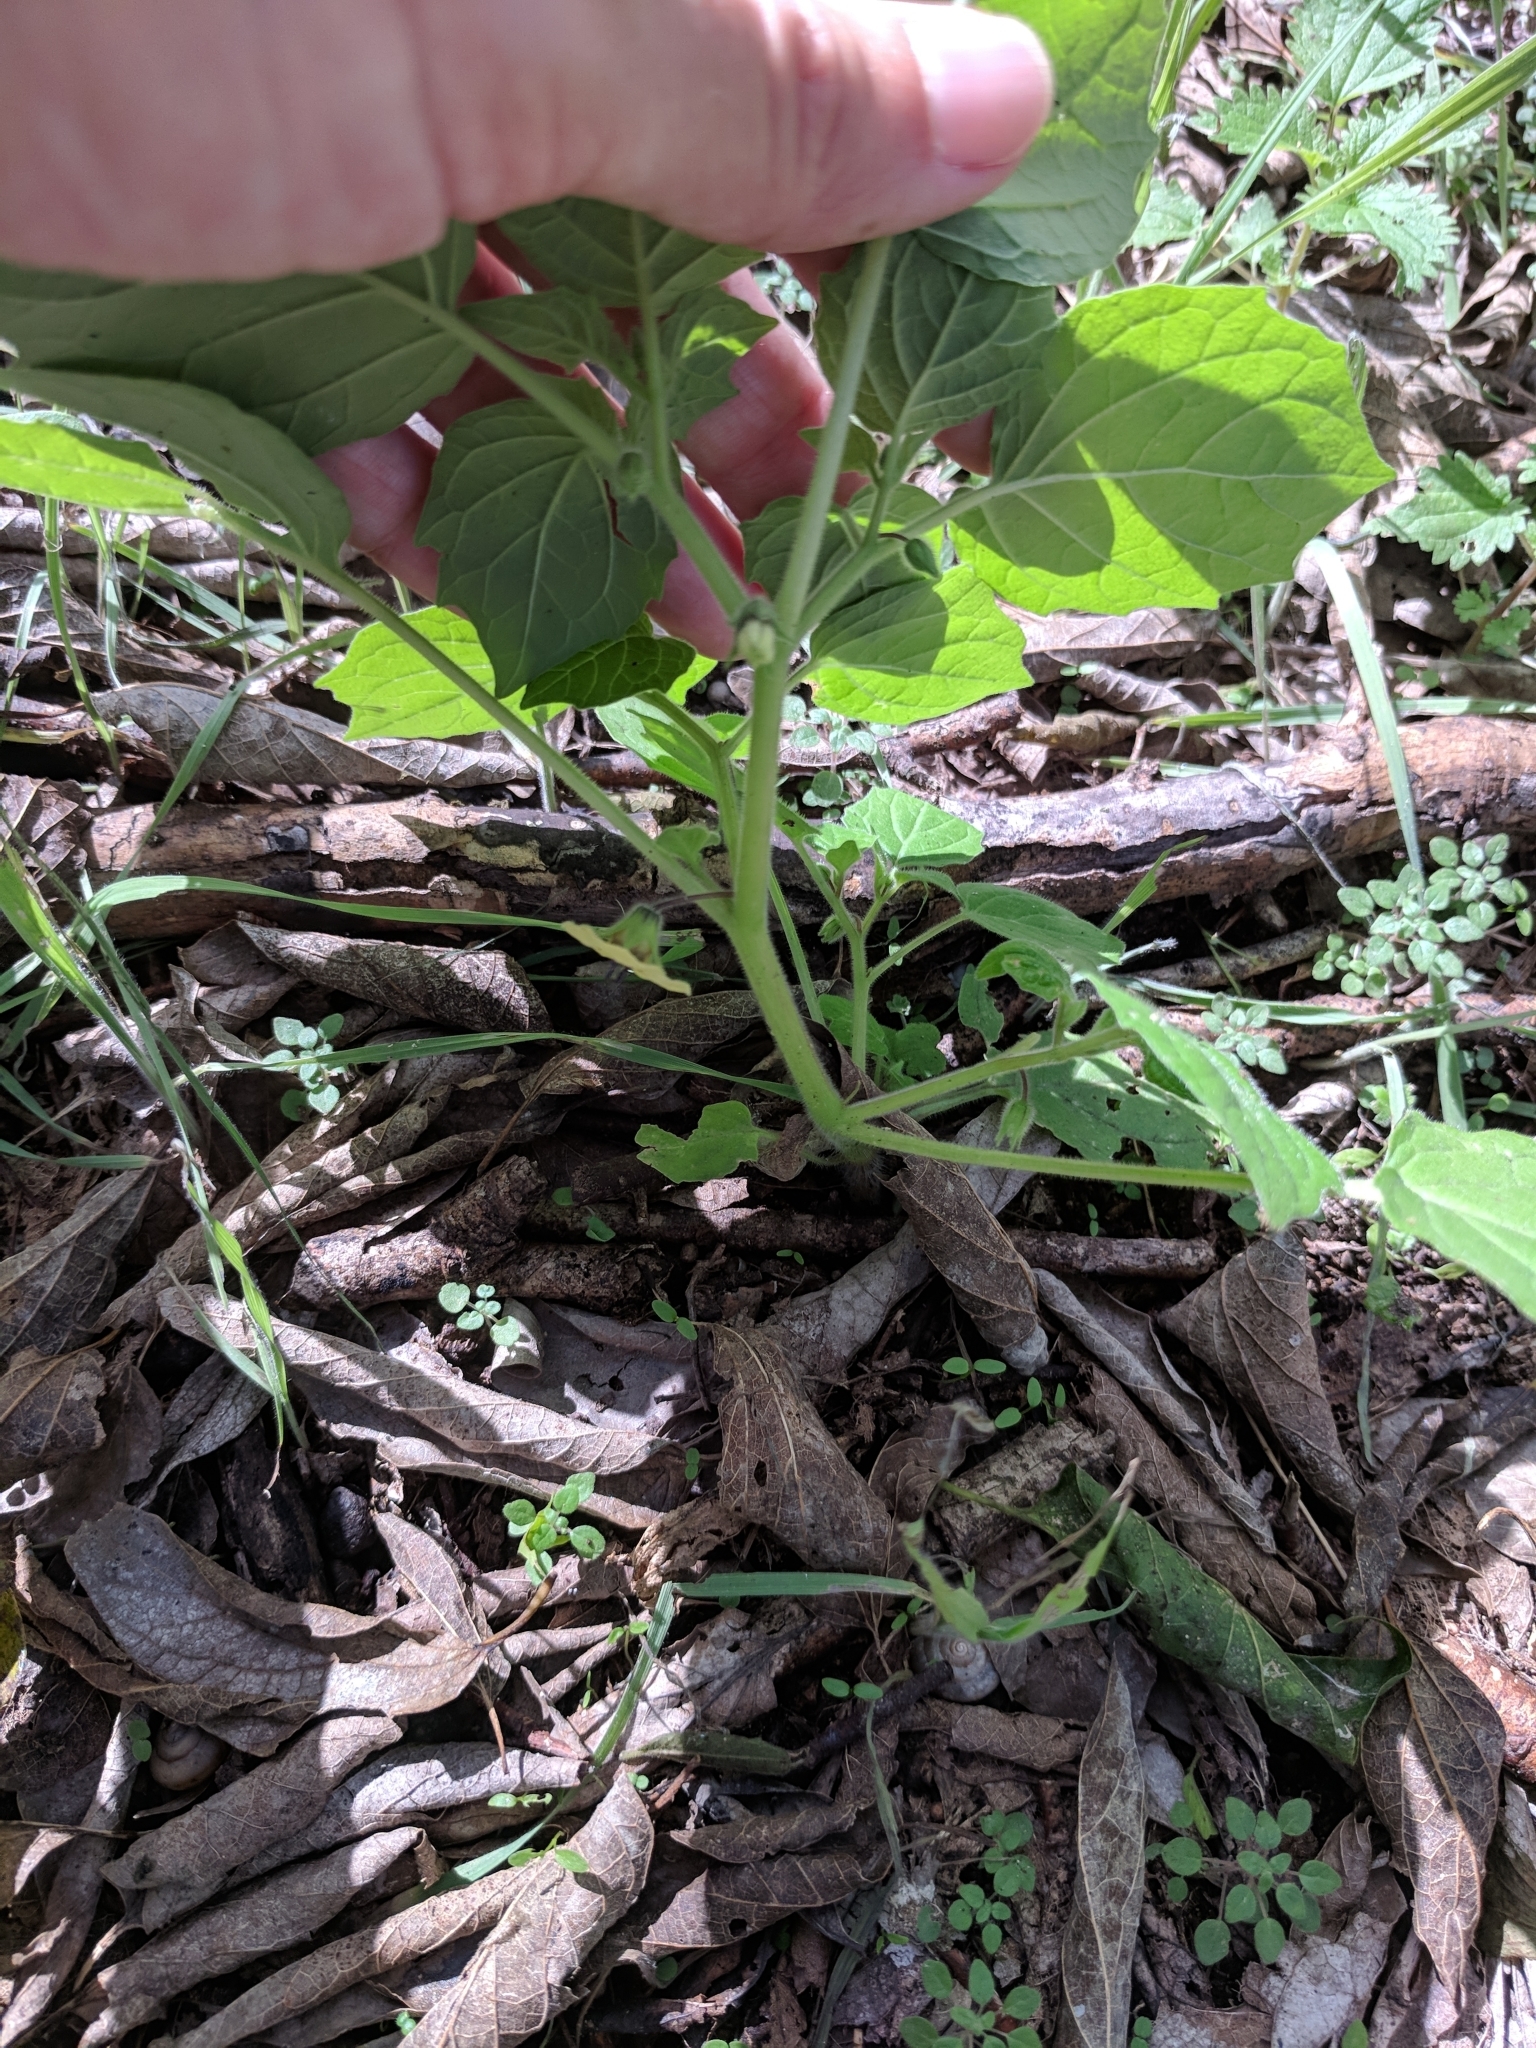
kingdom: Plantae
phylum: Tracheophyta
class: Magnoliopsida
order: Solanales
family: Solanaceae
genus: Physalis
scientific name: Physalis pubescens
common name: Downy ground-cherry
